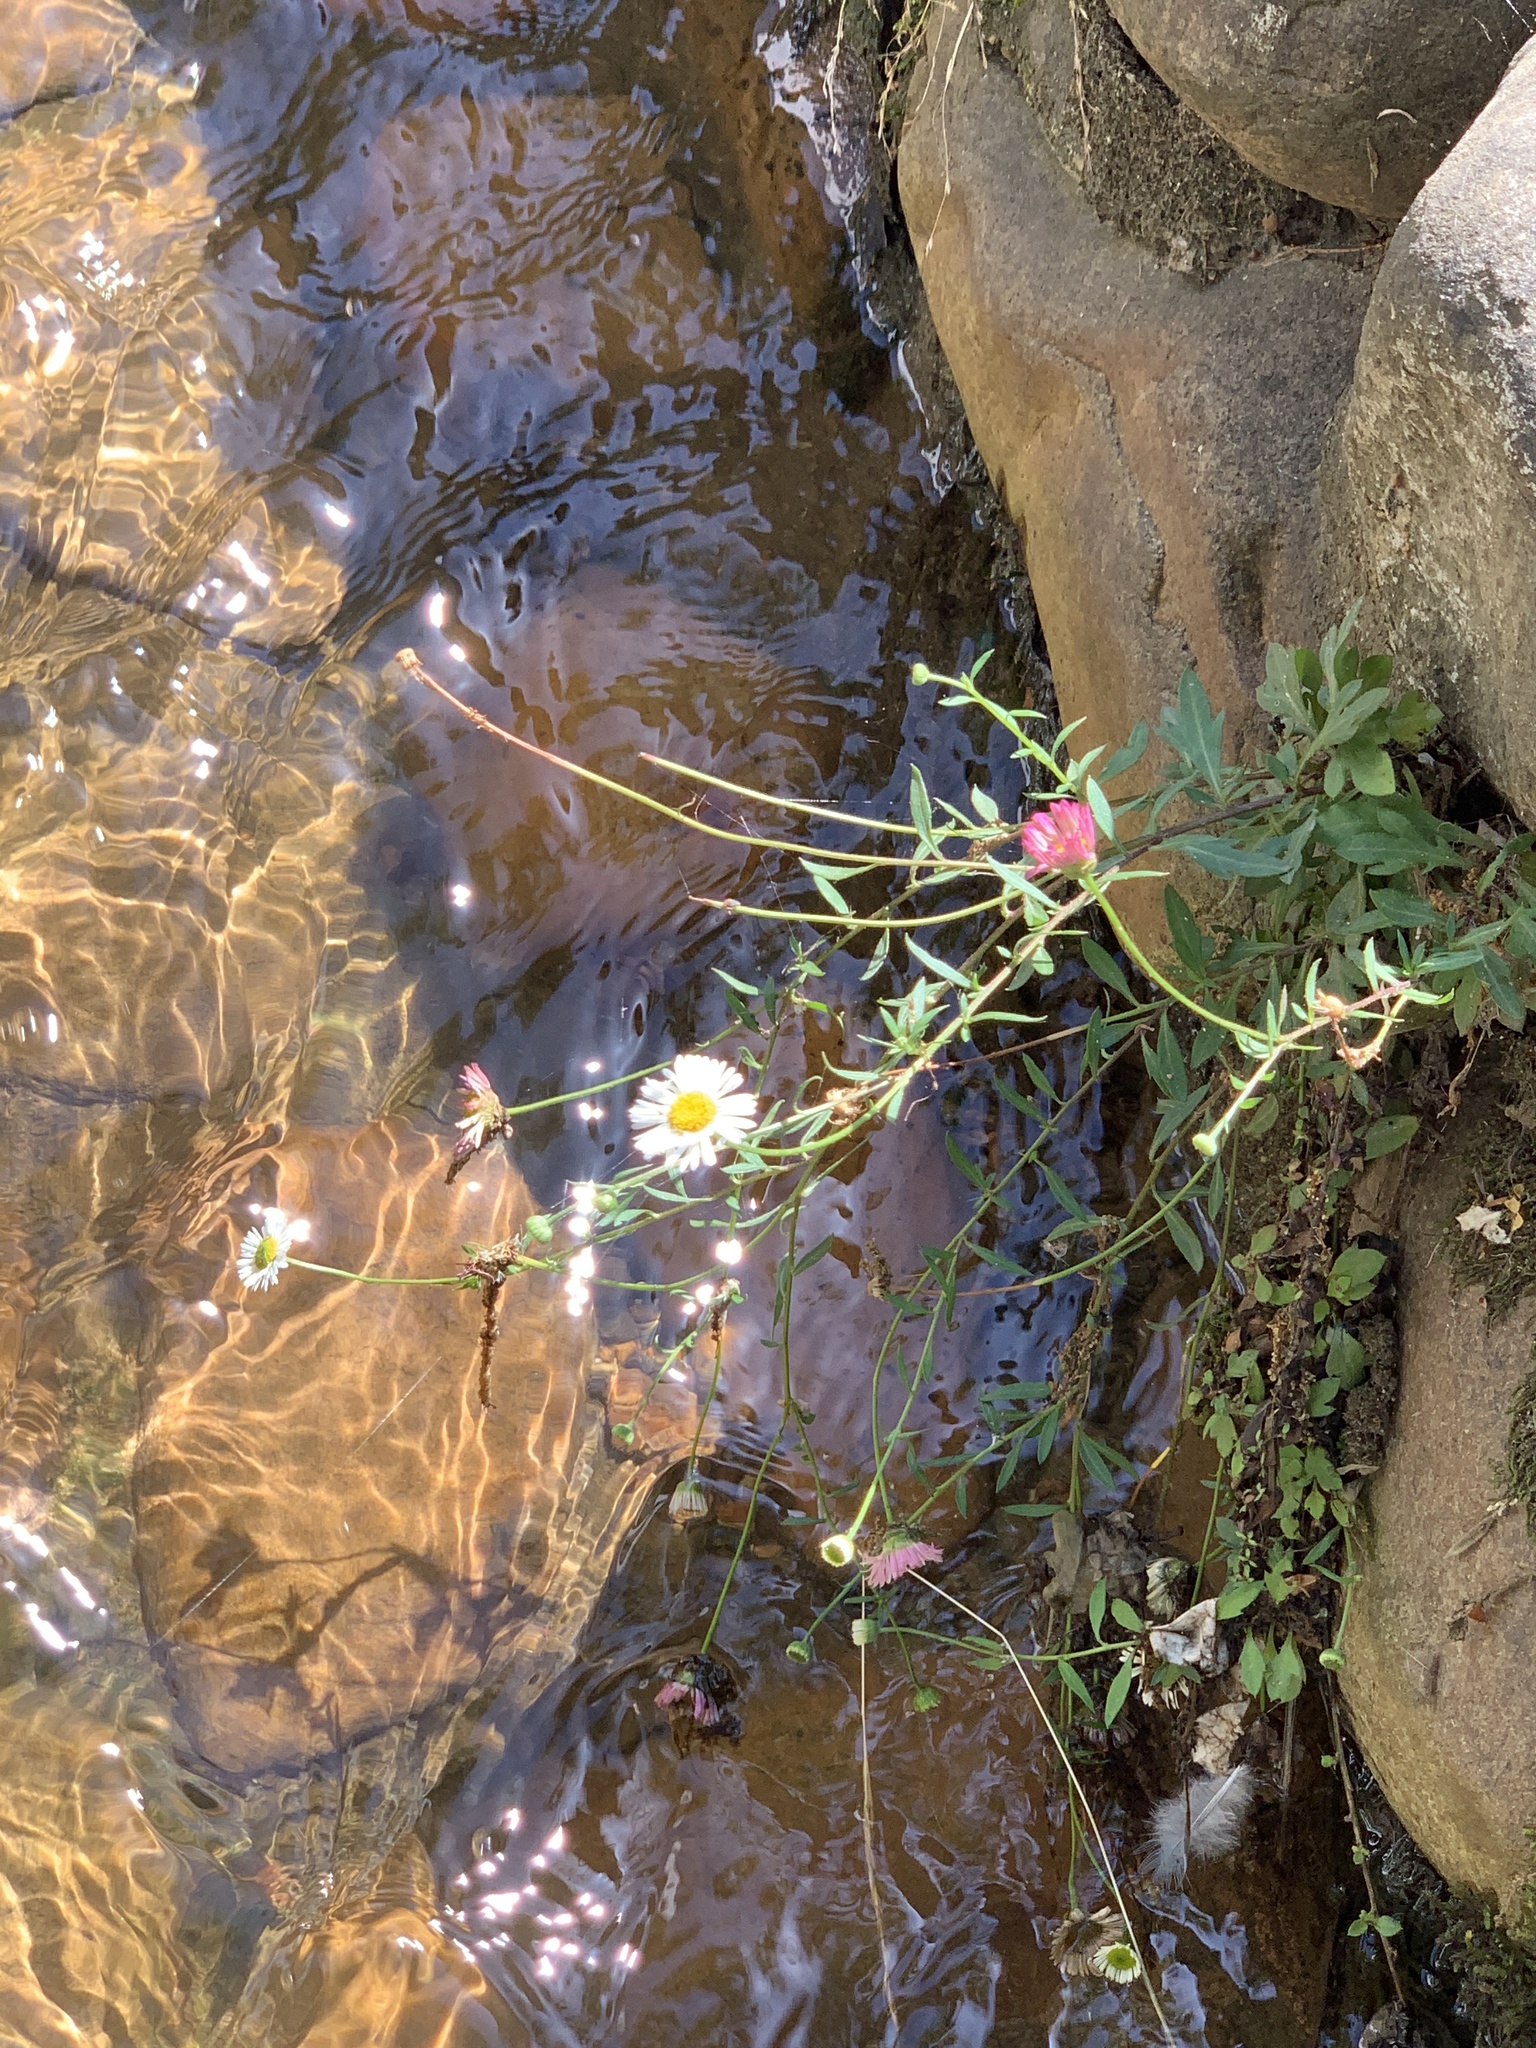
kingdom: Plantae
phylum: Tracheophyta
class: Magnoliopsida
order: Asterales
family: Asteraceae
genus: Erigeron
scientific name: Erigeron karvinskianus
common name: Mexican fleabane
